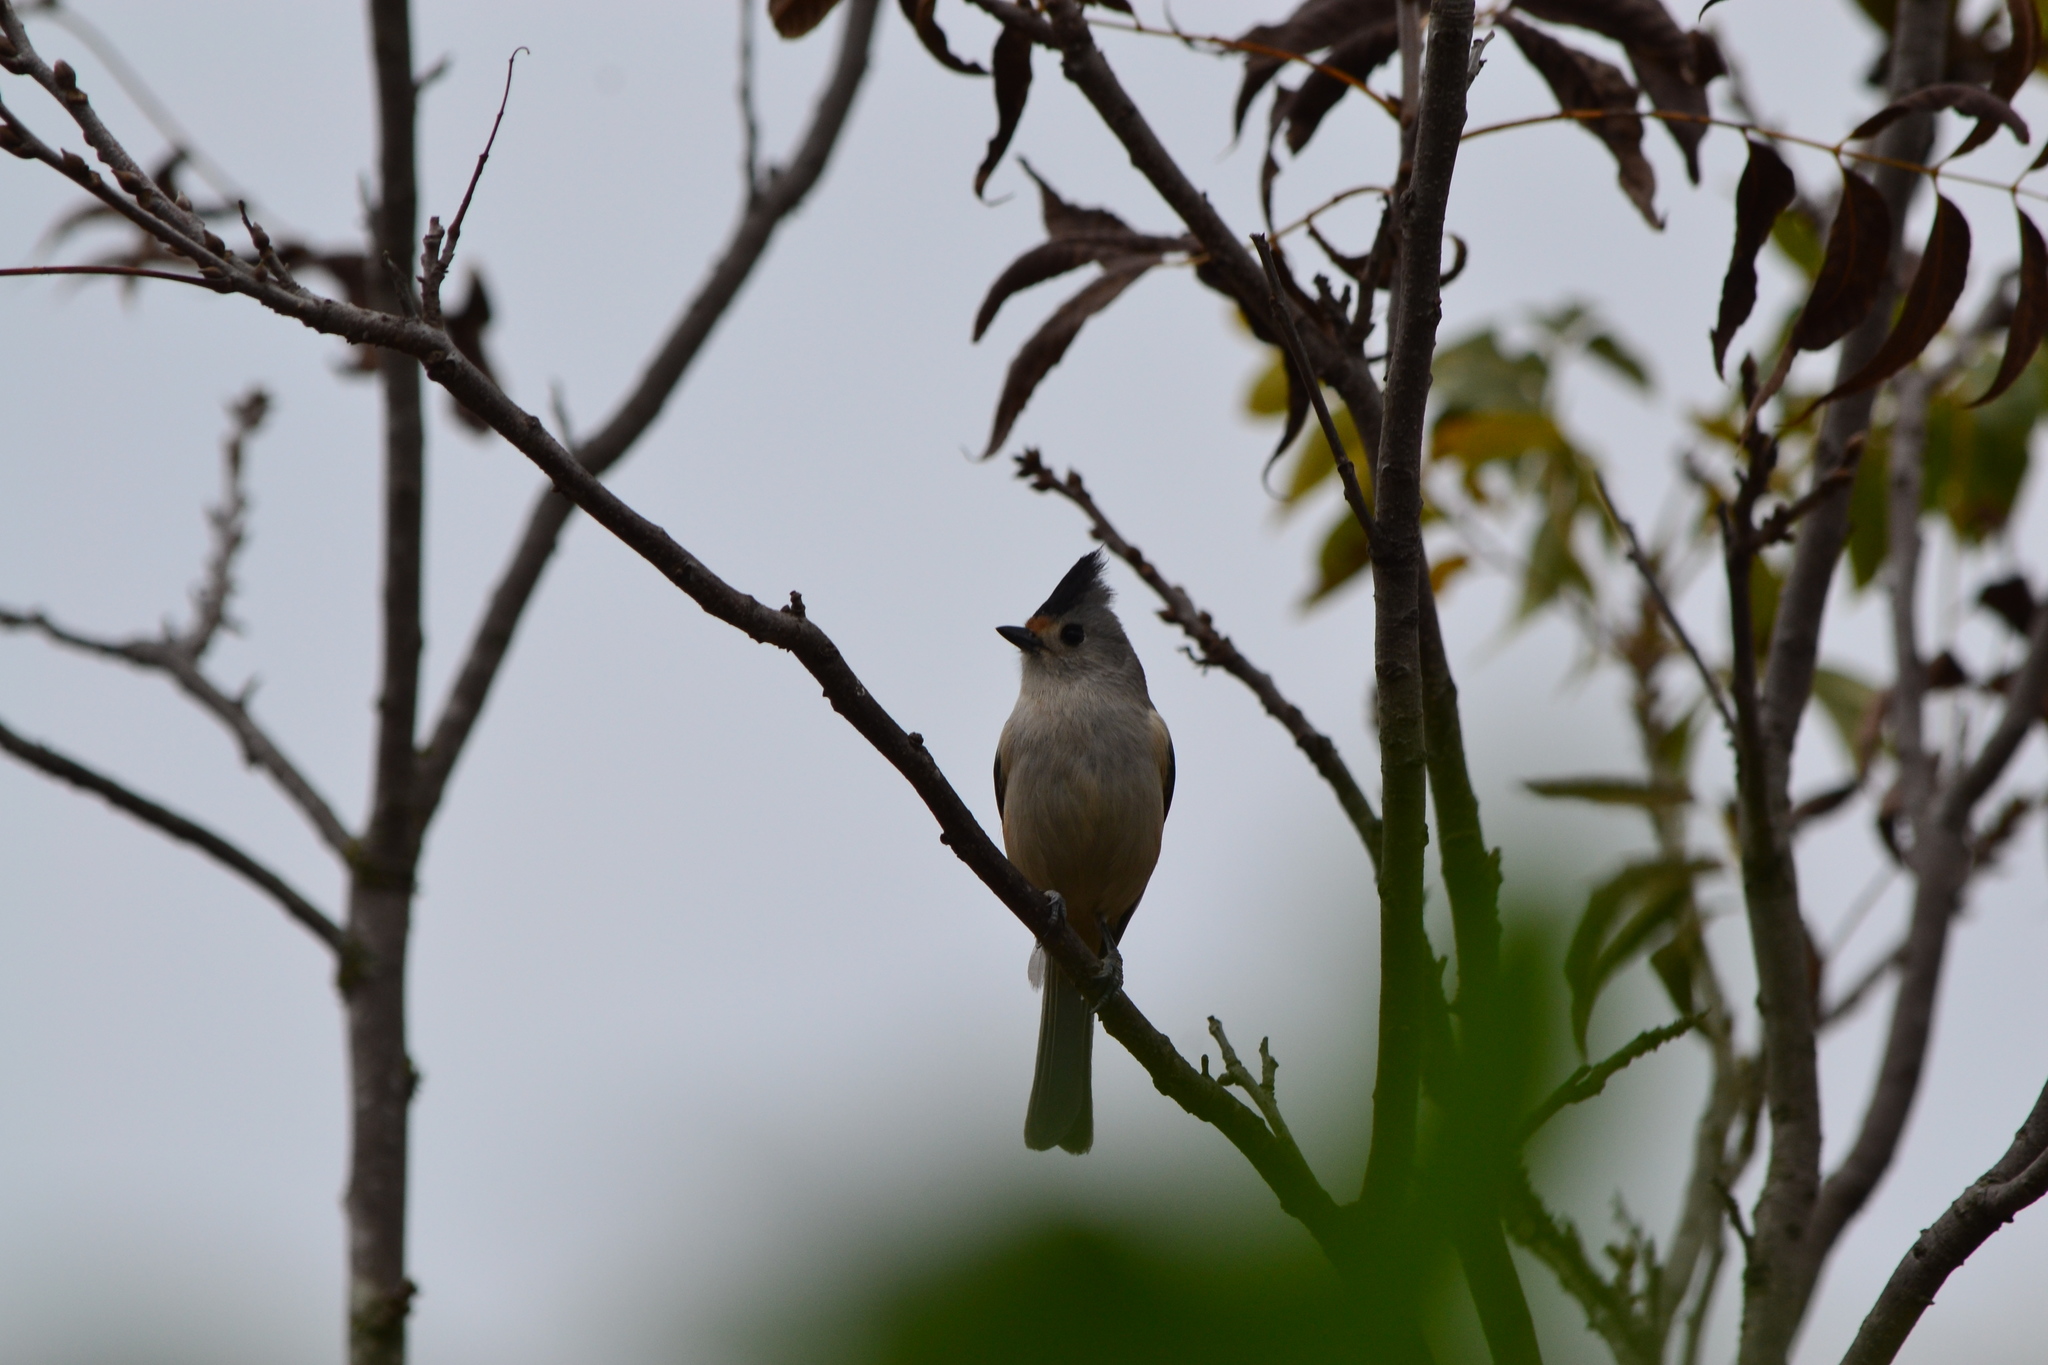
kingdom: Animalia
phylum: Chordata
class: Aves
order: Passeriformes
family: Paridae
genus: Baeolophus
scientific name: Baeolophus atricristatus
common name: Black-crested titmouse
